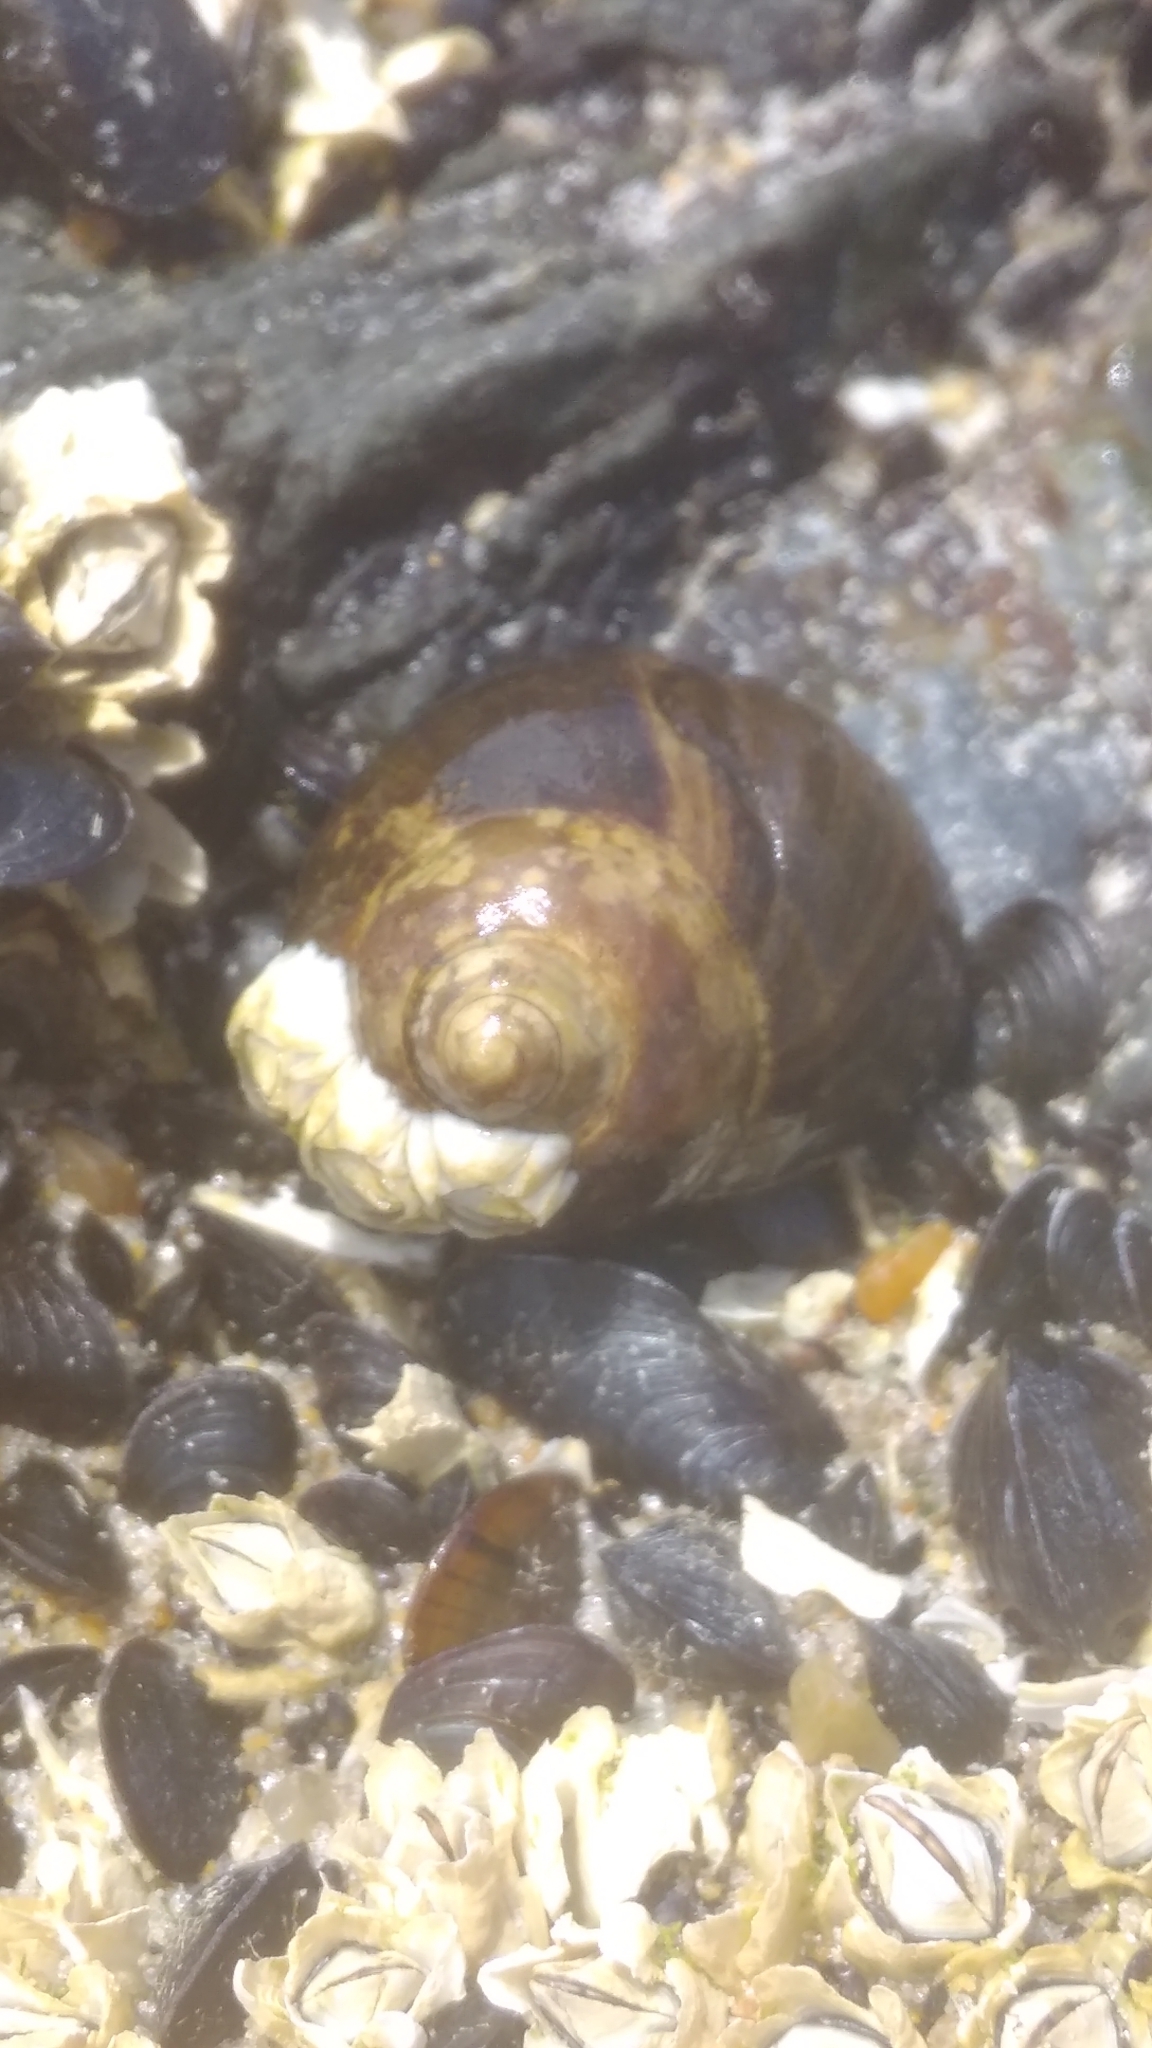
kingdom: Animalia
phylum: Mollusca
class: Gastropoda
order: Littorinimorpha
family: Littorinidae
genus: Littorina
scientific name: Littorina littorea
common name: Common periwinkle
